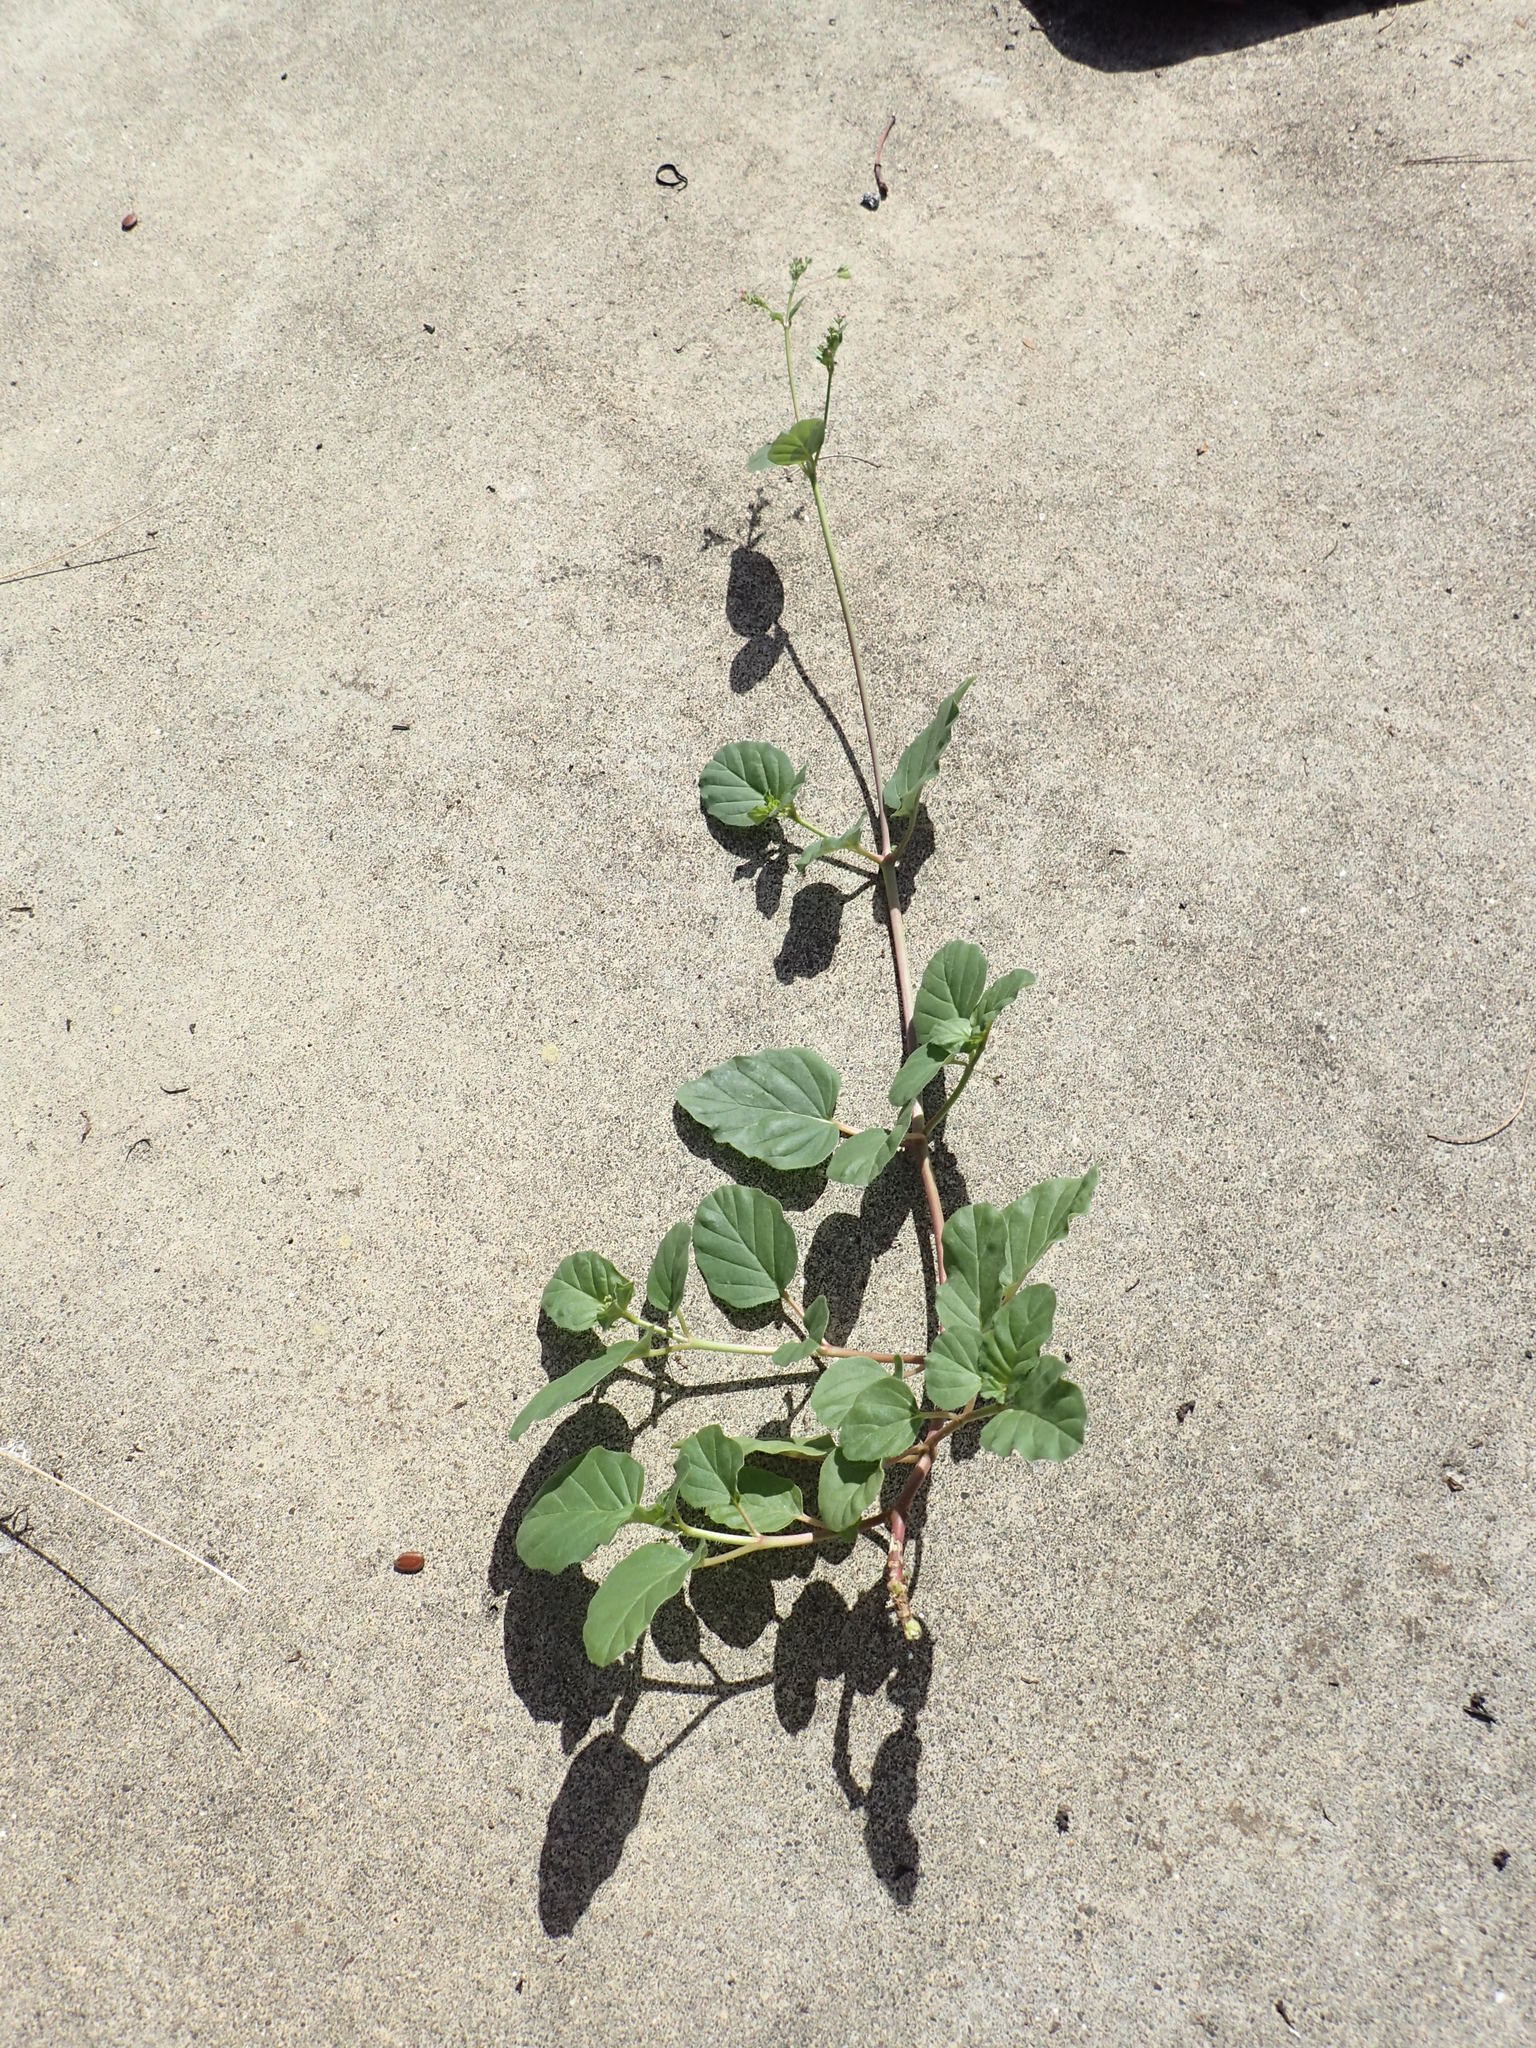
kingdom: Plantae
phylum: Tracheophyta
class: Magnoliopsida
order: Caryophyllales
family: Nyctaginaceae
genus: Boerhavia
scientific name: Boerhavia coccinea
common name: Scarlet spiderling
